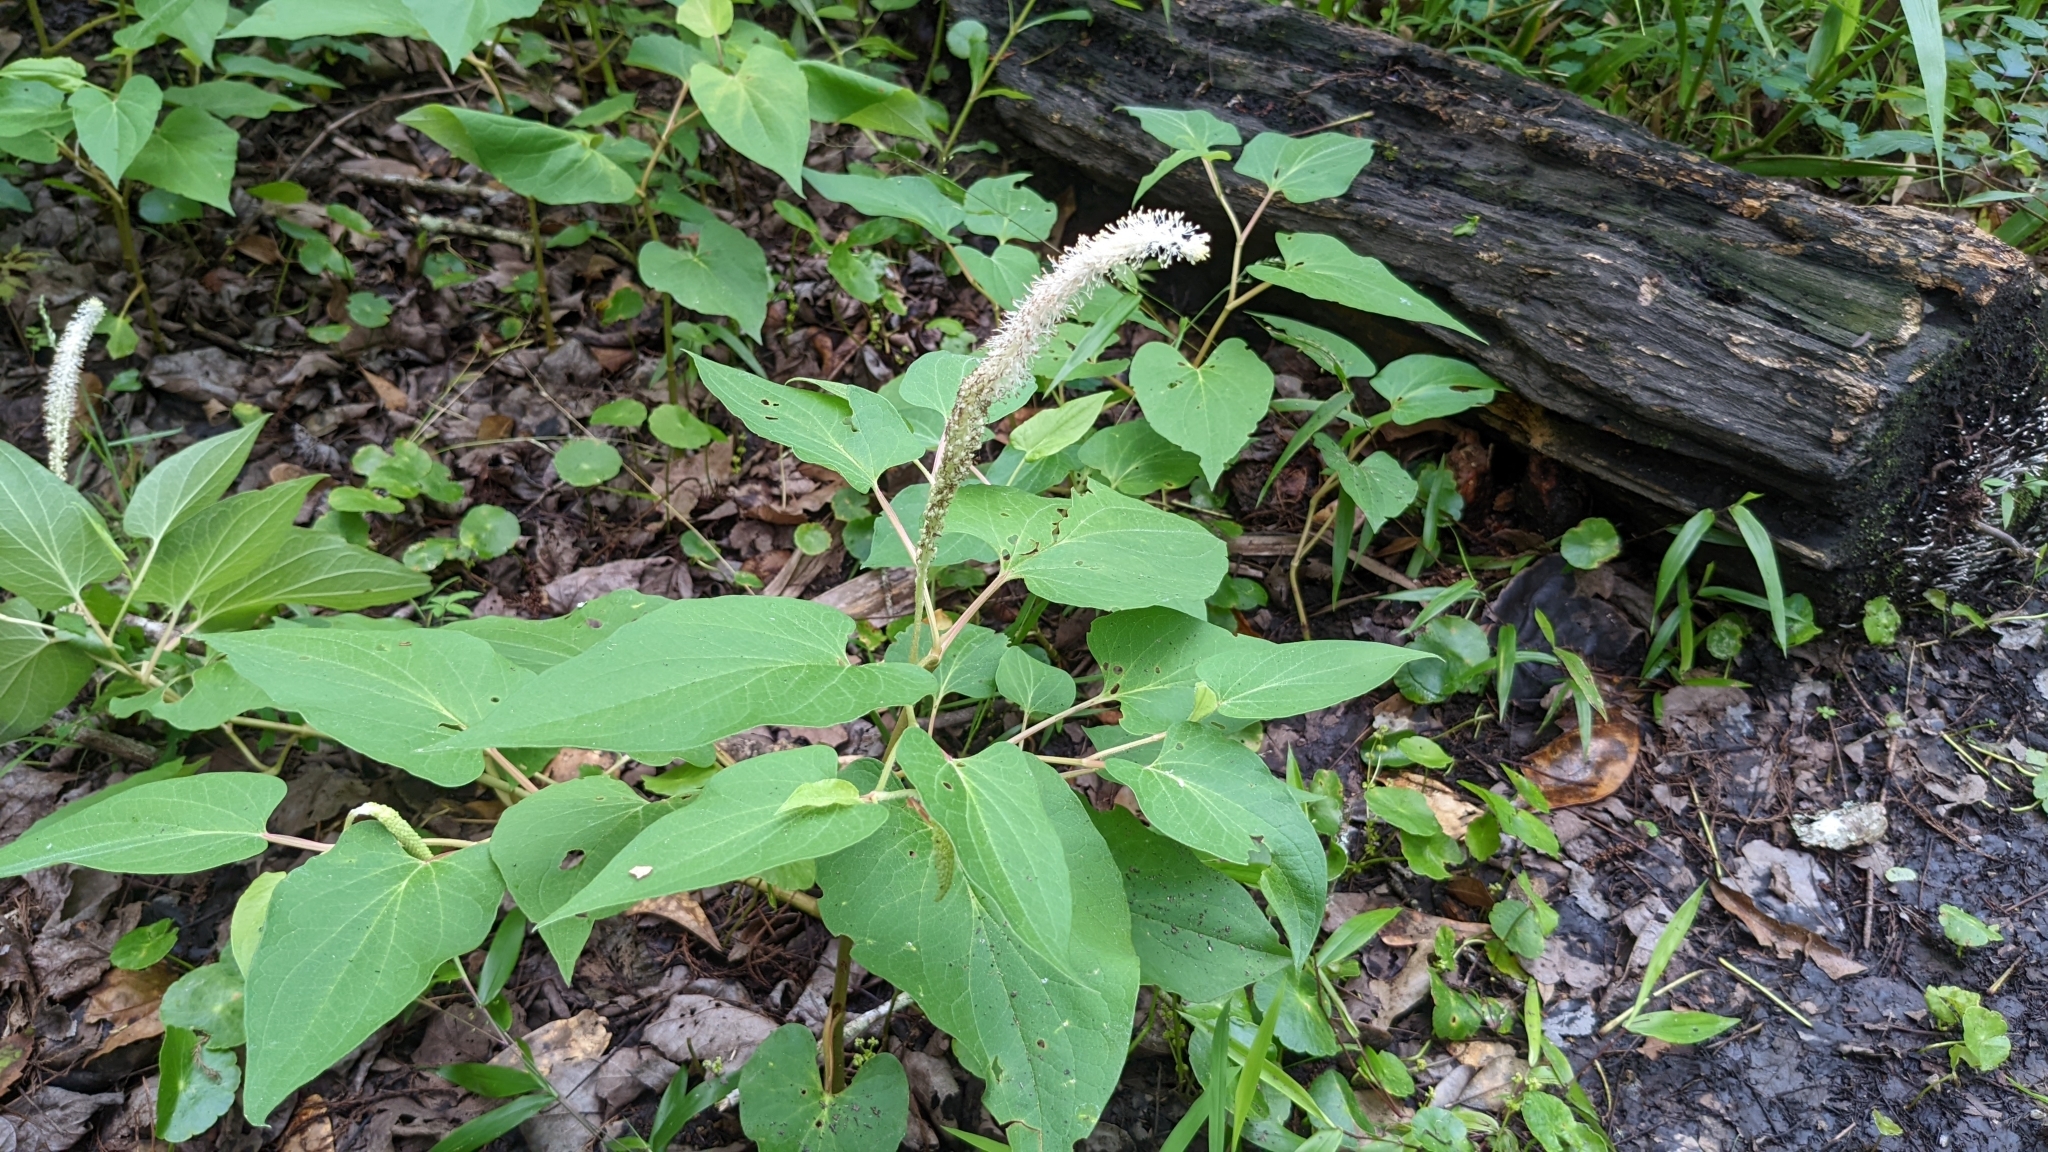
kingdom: Plantae
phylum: Tracheophyta
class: Magnoliopsida
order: Piperales
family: Saururaceae
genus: Saururus
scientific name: Saururus cernuus
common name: Lizard's-tail
